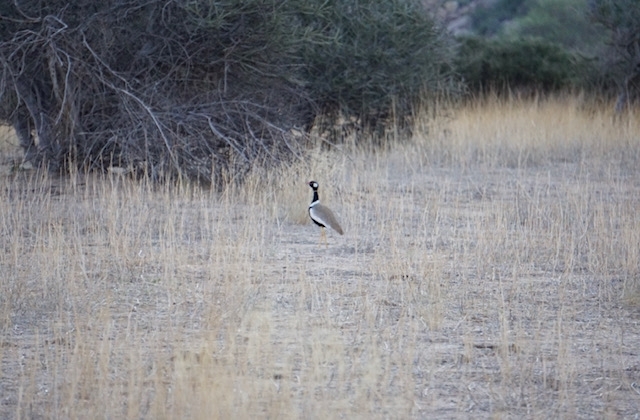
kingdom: Animalia
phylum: Chordata
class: Aves
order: Otidiformes
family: Otididae
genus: Afrotis
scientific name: Afrotis afraoides
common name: Northern black korhaan
